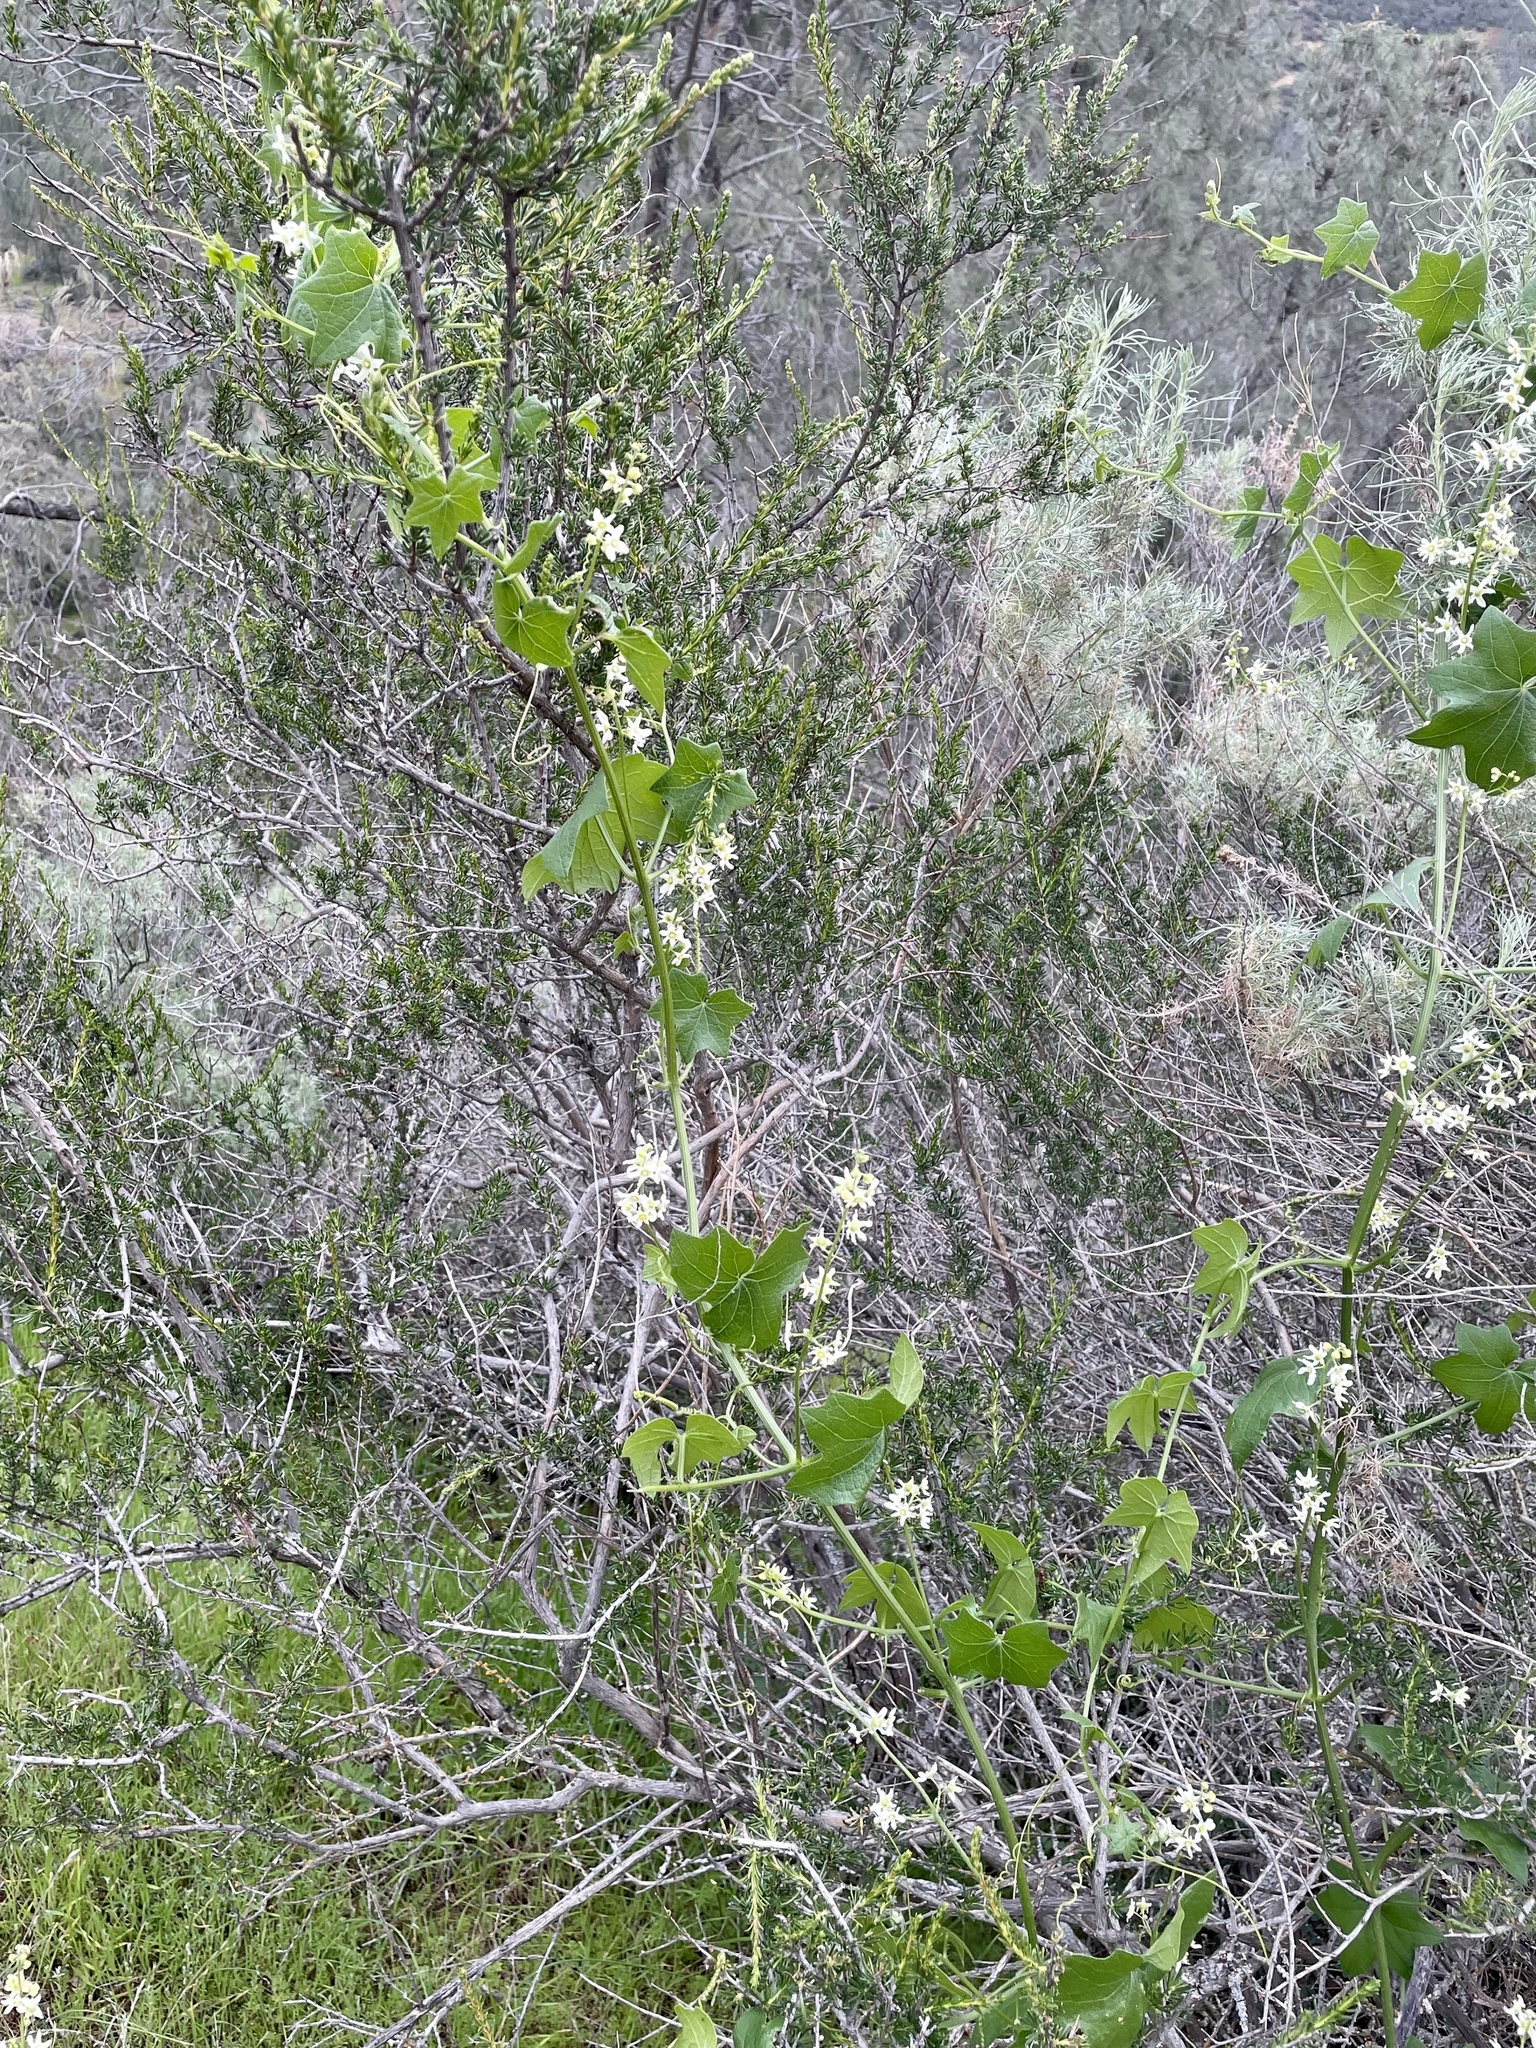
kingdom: Plantae
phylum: Tracheophyta
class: Magnoliopsida
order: Cucurbitales
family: Cucurbitaceae
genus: Marah
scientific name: Marah fabacea
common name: California manroot
